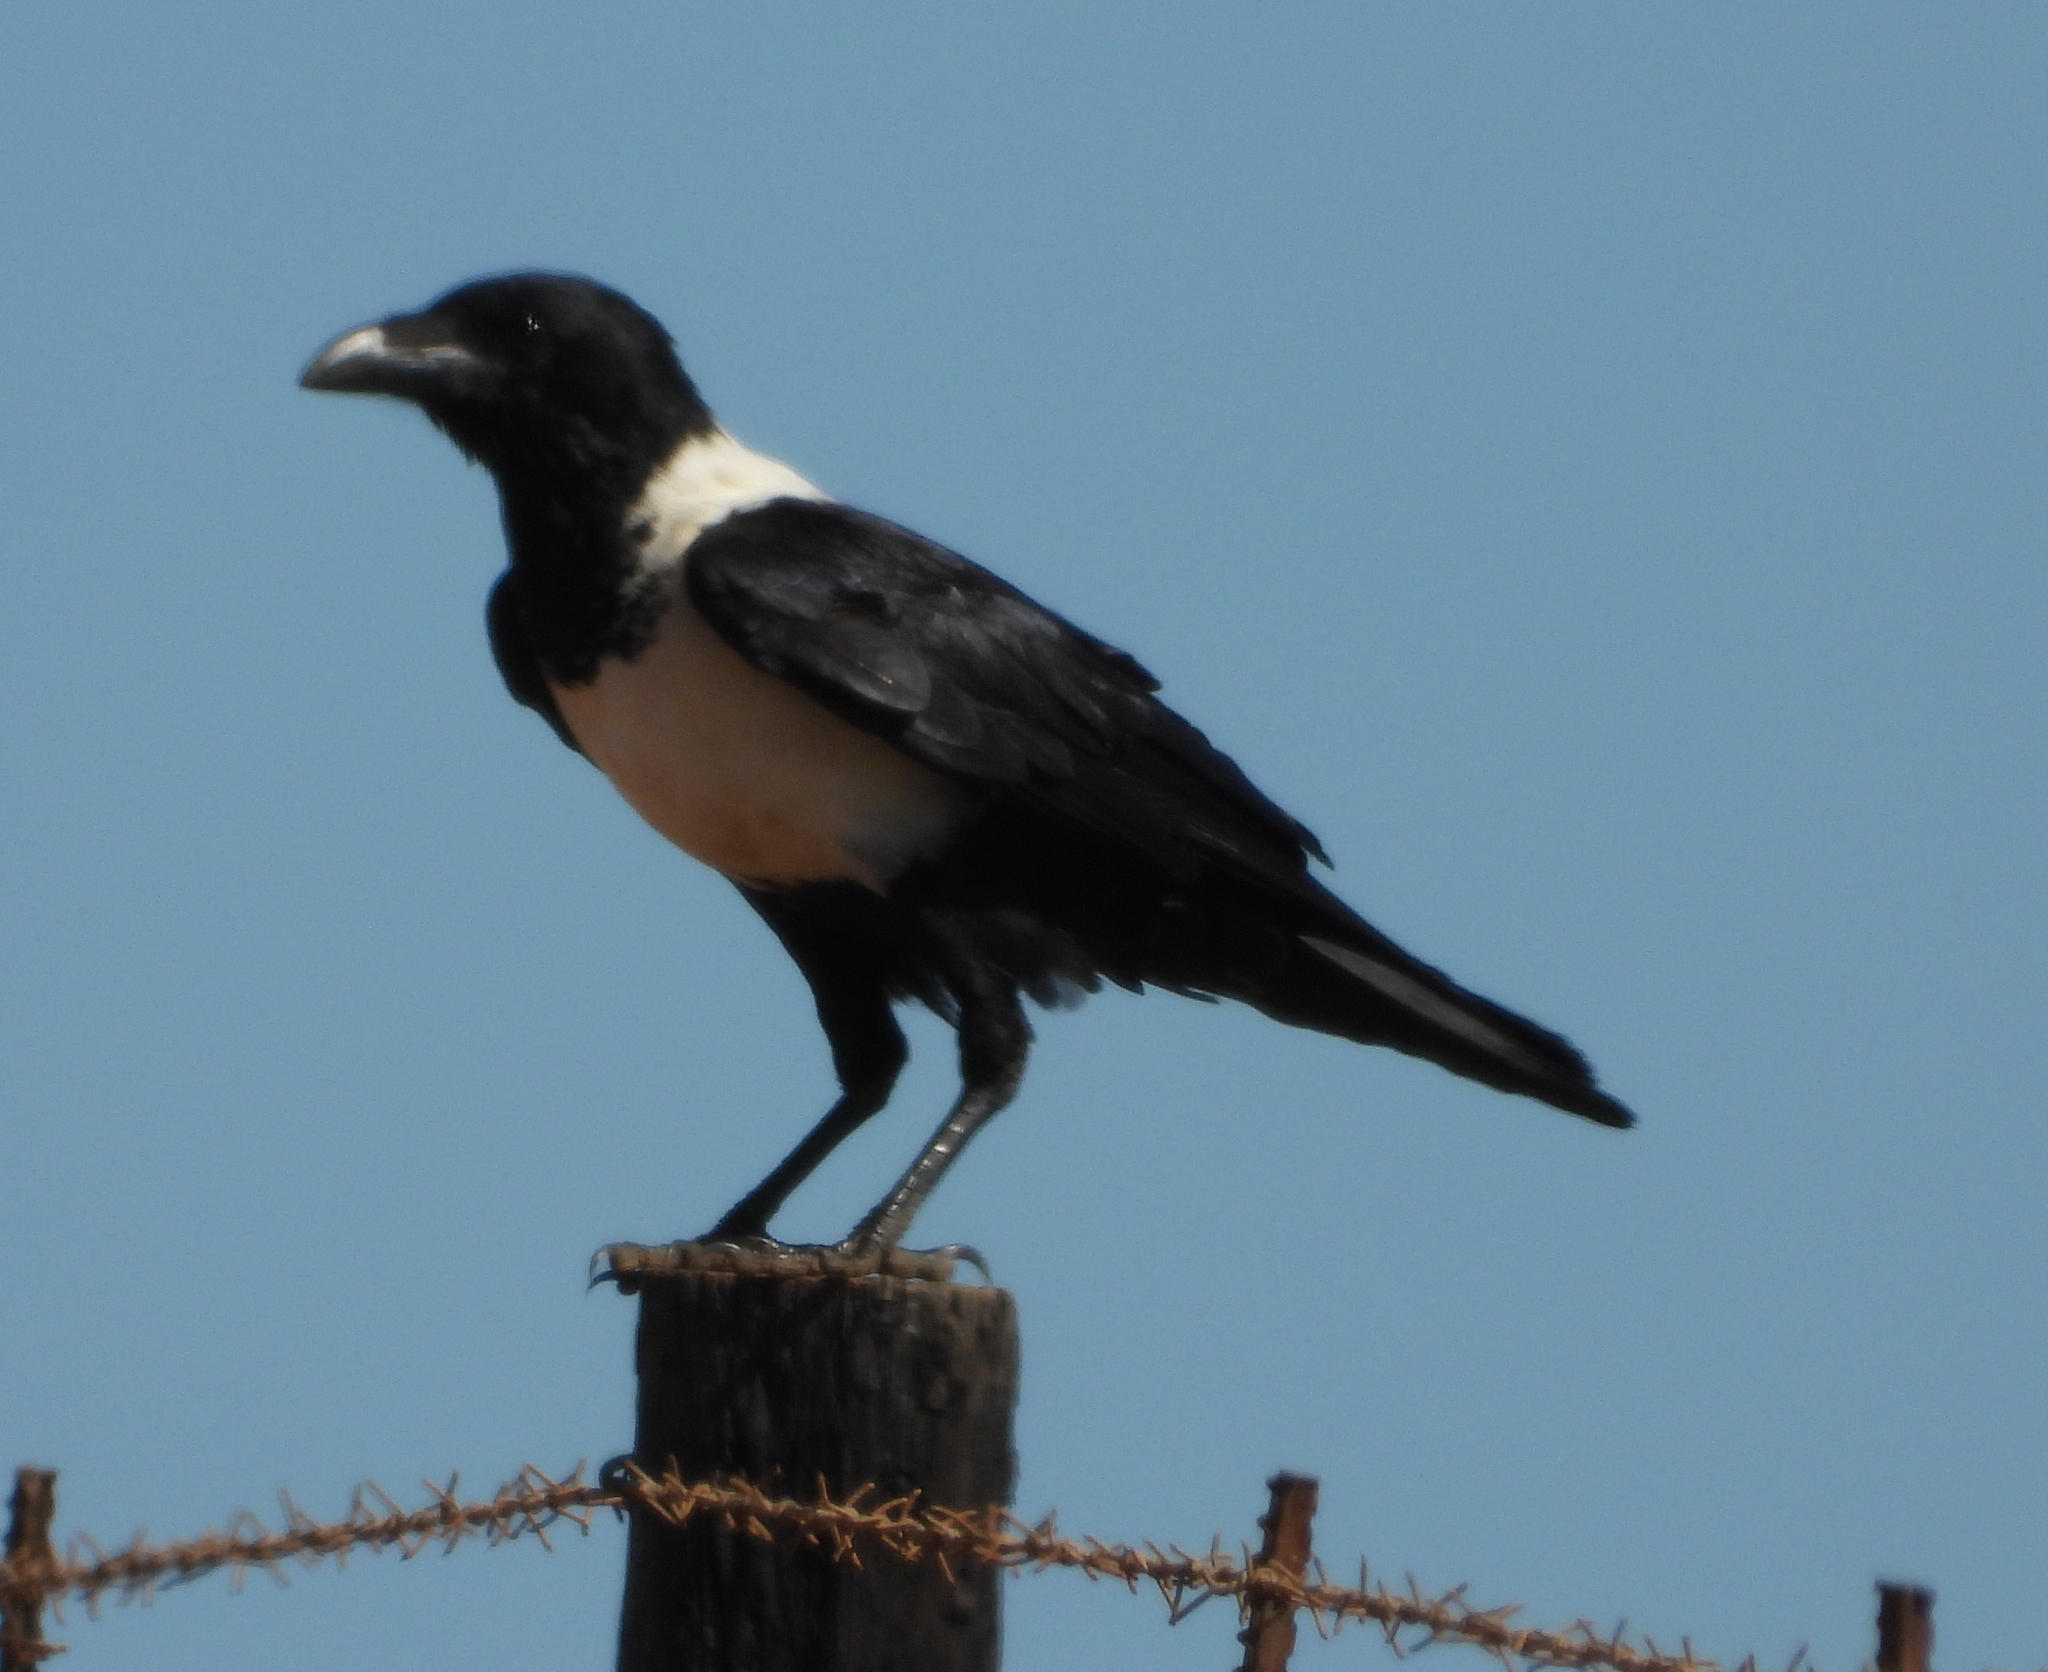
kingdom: Animalia
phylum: Chordata
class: Aves
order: Passeriformes
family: Corvidae
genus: Corvus
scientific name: Corvus albus
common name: Pied crow
